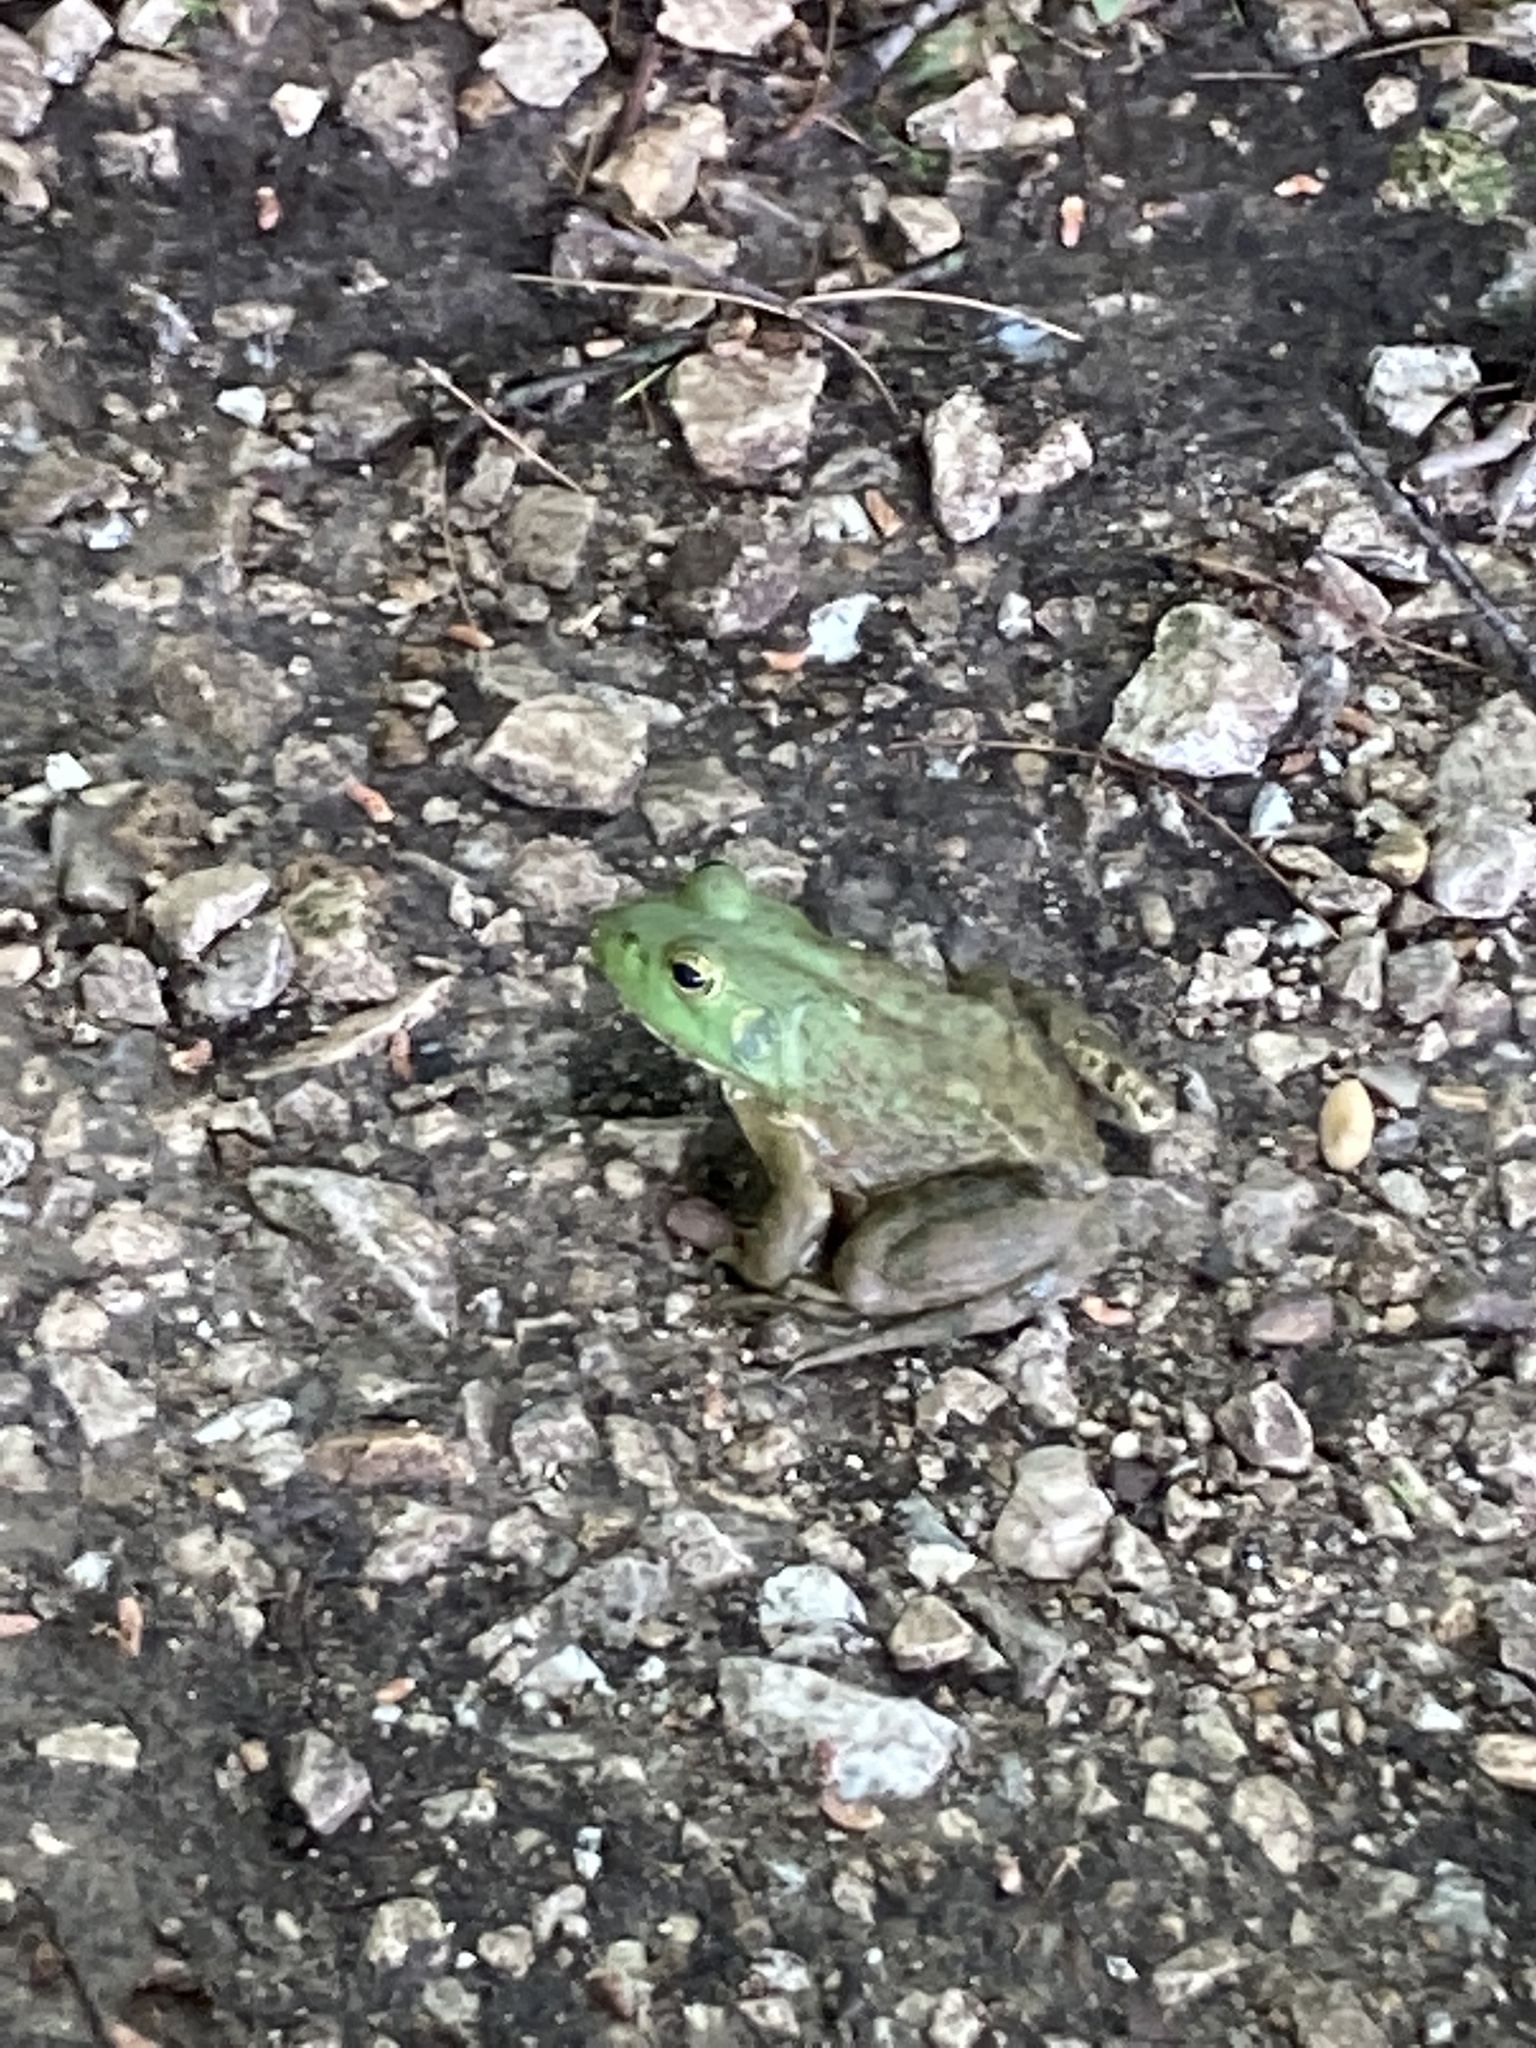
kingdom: Animalia
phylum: Chordata
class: Amphibia
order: Anura
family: Ranidae
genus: Lithobates
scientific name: Lithobates catesbeianus
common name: American bullfrog
